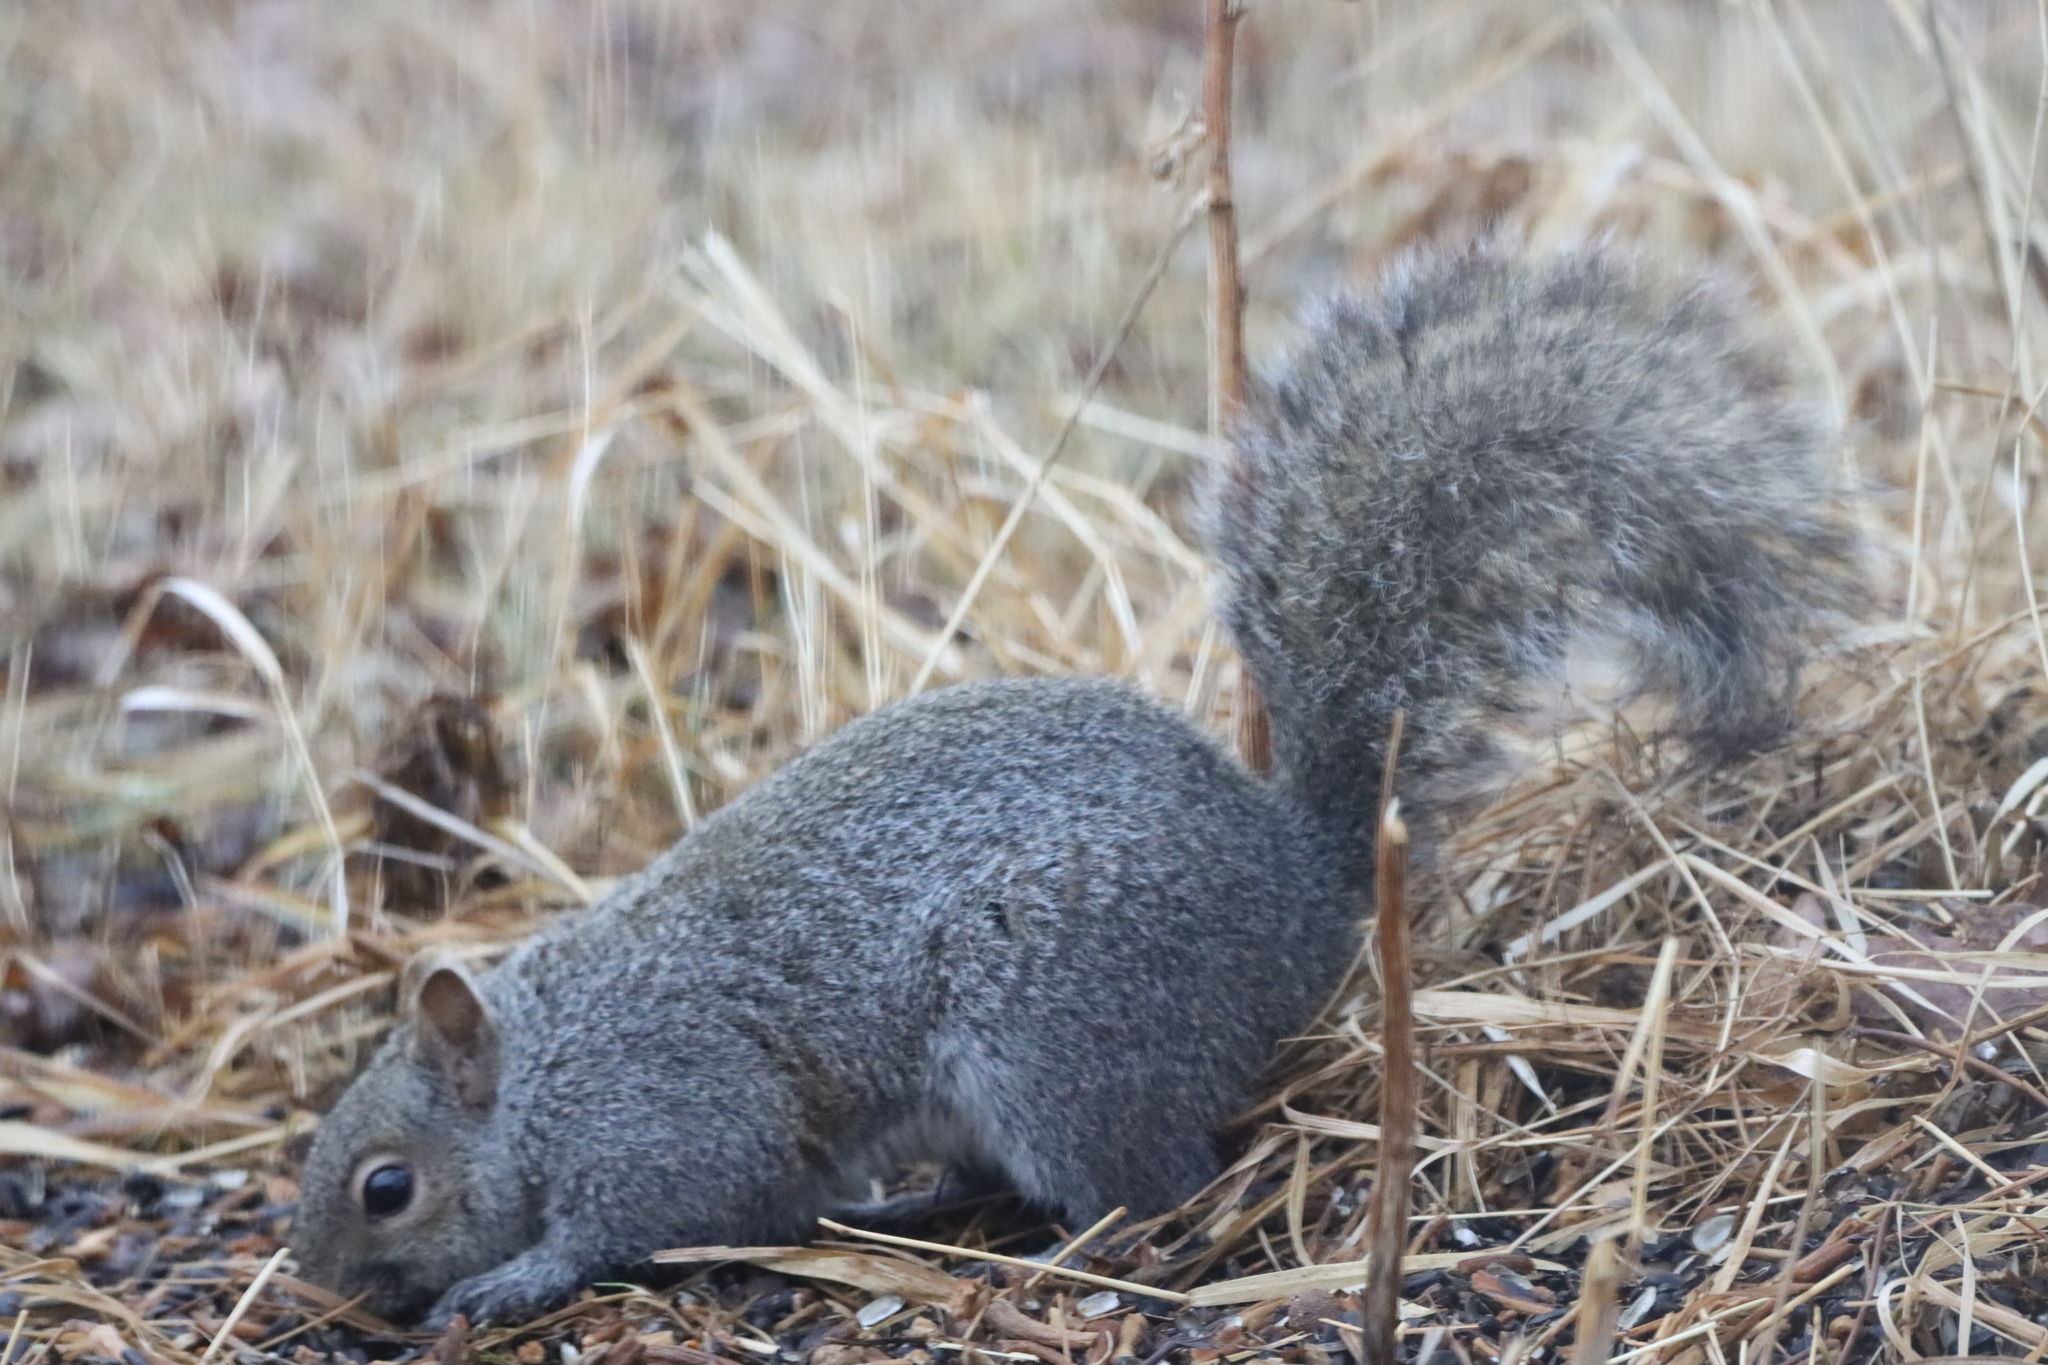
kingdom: Animalia
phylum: Chordata
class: Mammalia
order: Rodentia
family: Sciuridae
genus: Sciurus
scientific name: Sciurus carolinensis
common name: Eastern gray squirrel
